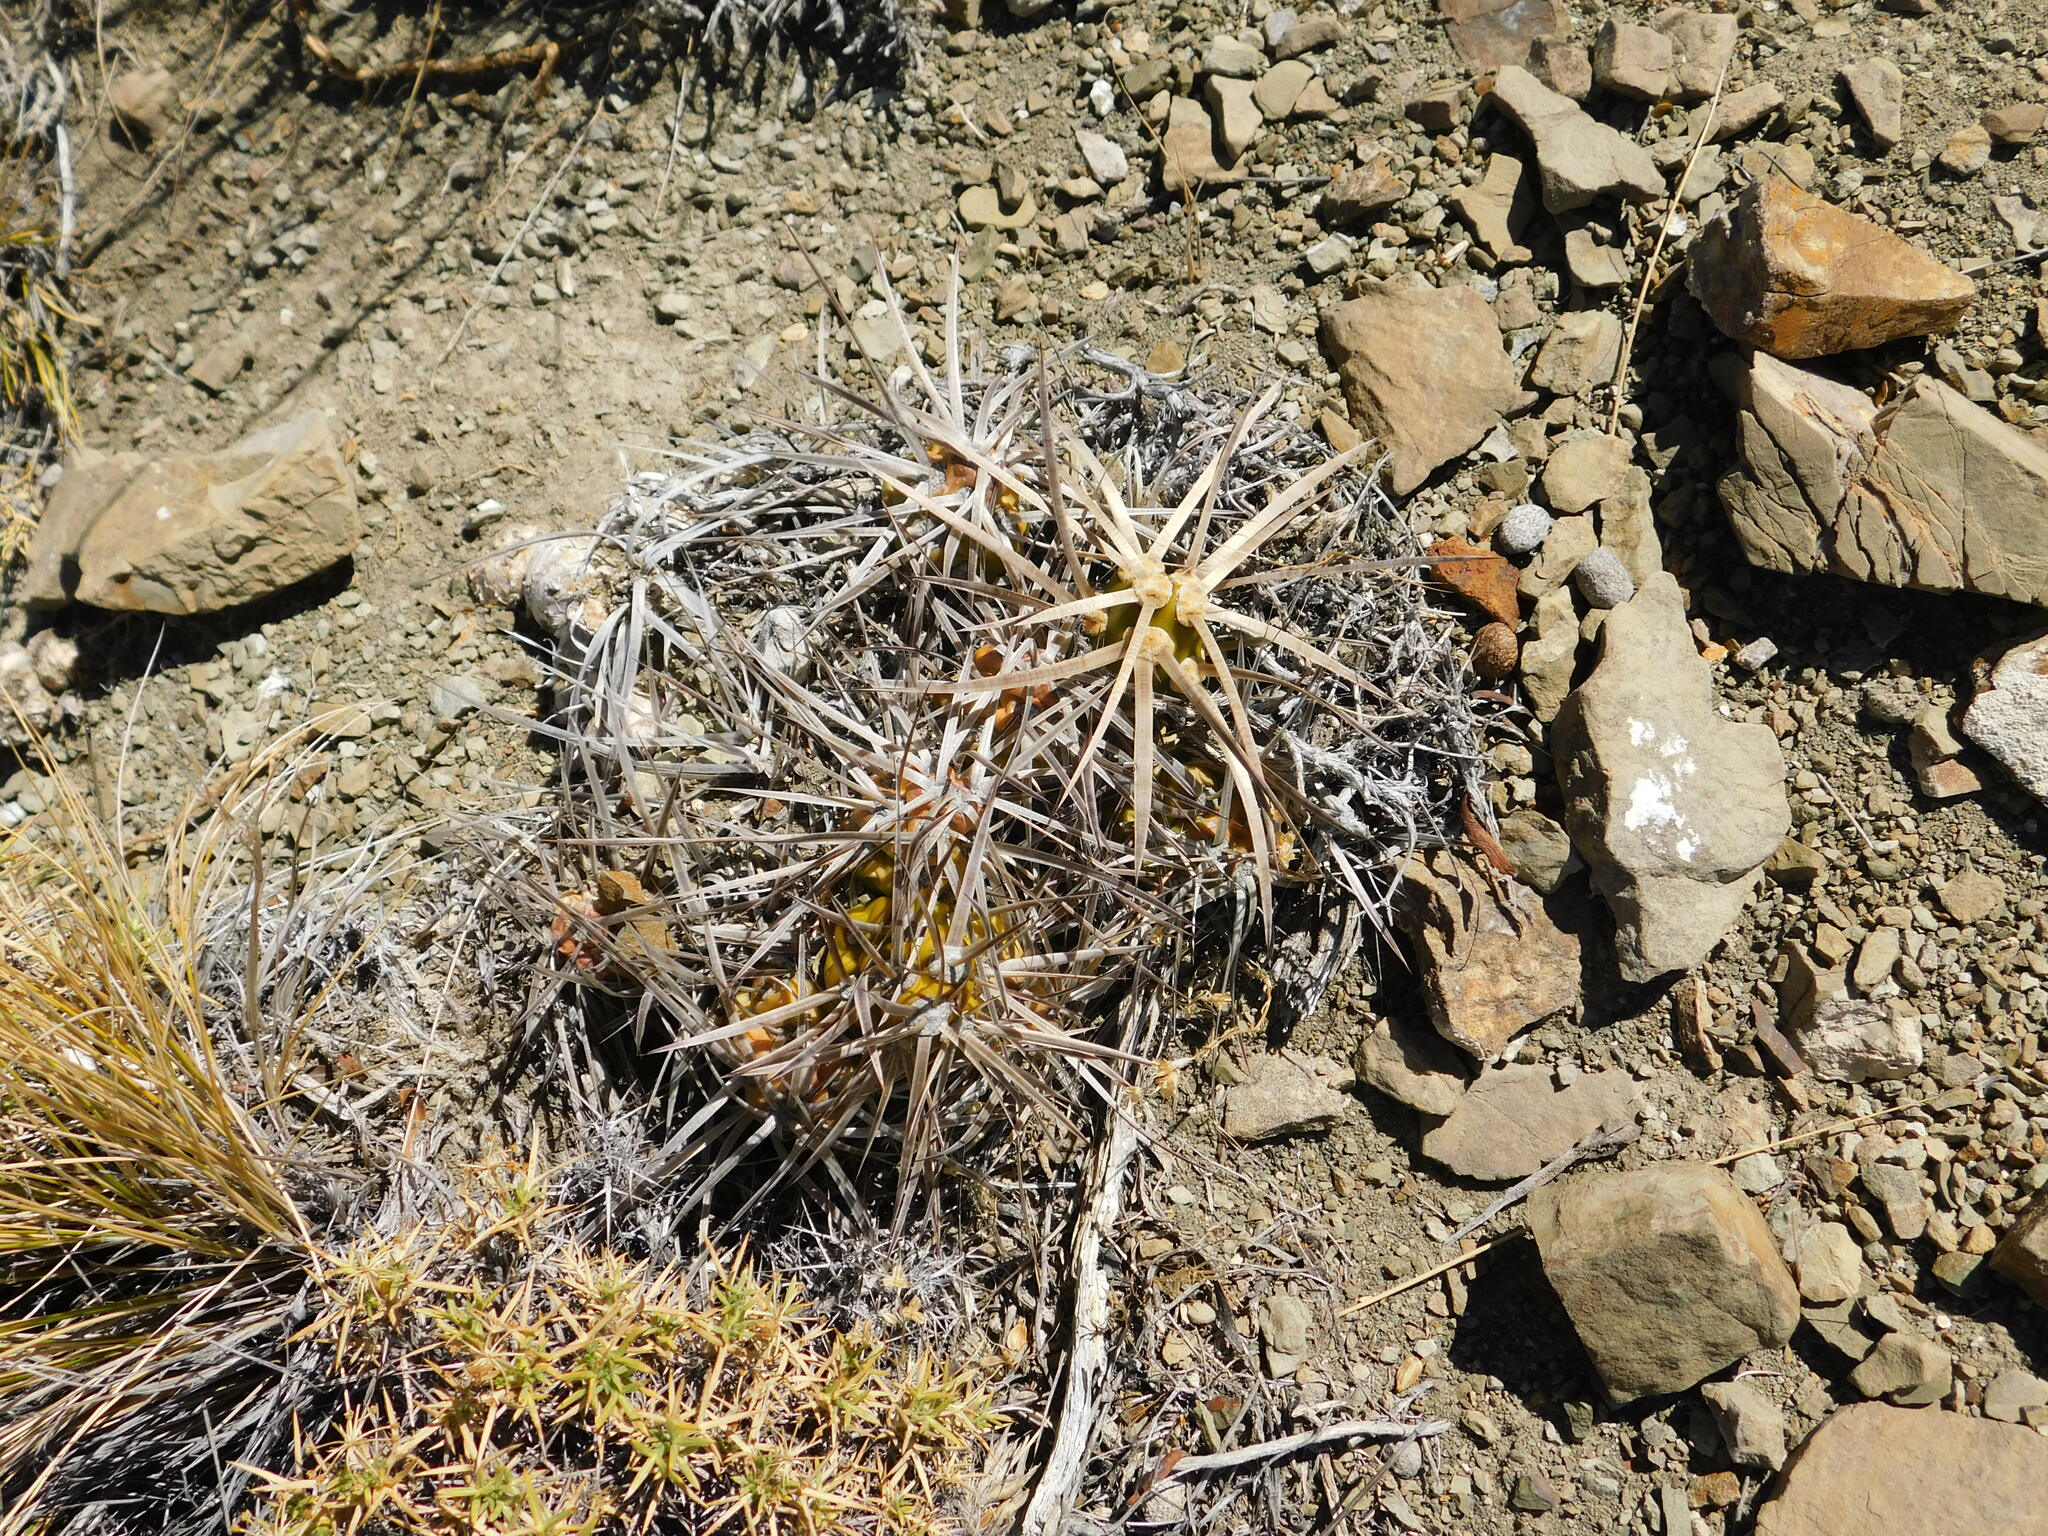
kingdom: Plantae
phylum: Tracheophyta
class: Magnoliopsida
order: Caryophyllales
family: Cactaceae
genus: Maihueniopsis
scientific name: Maihueniopsis platyacantha
